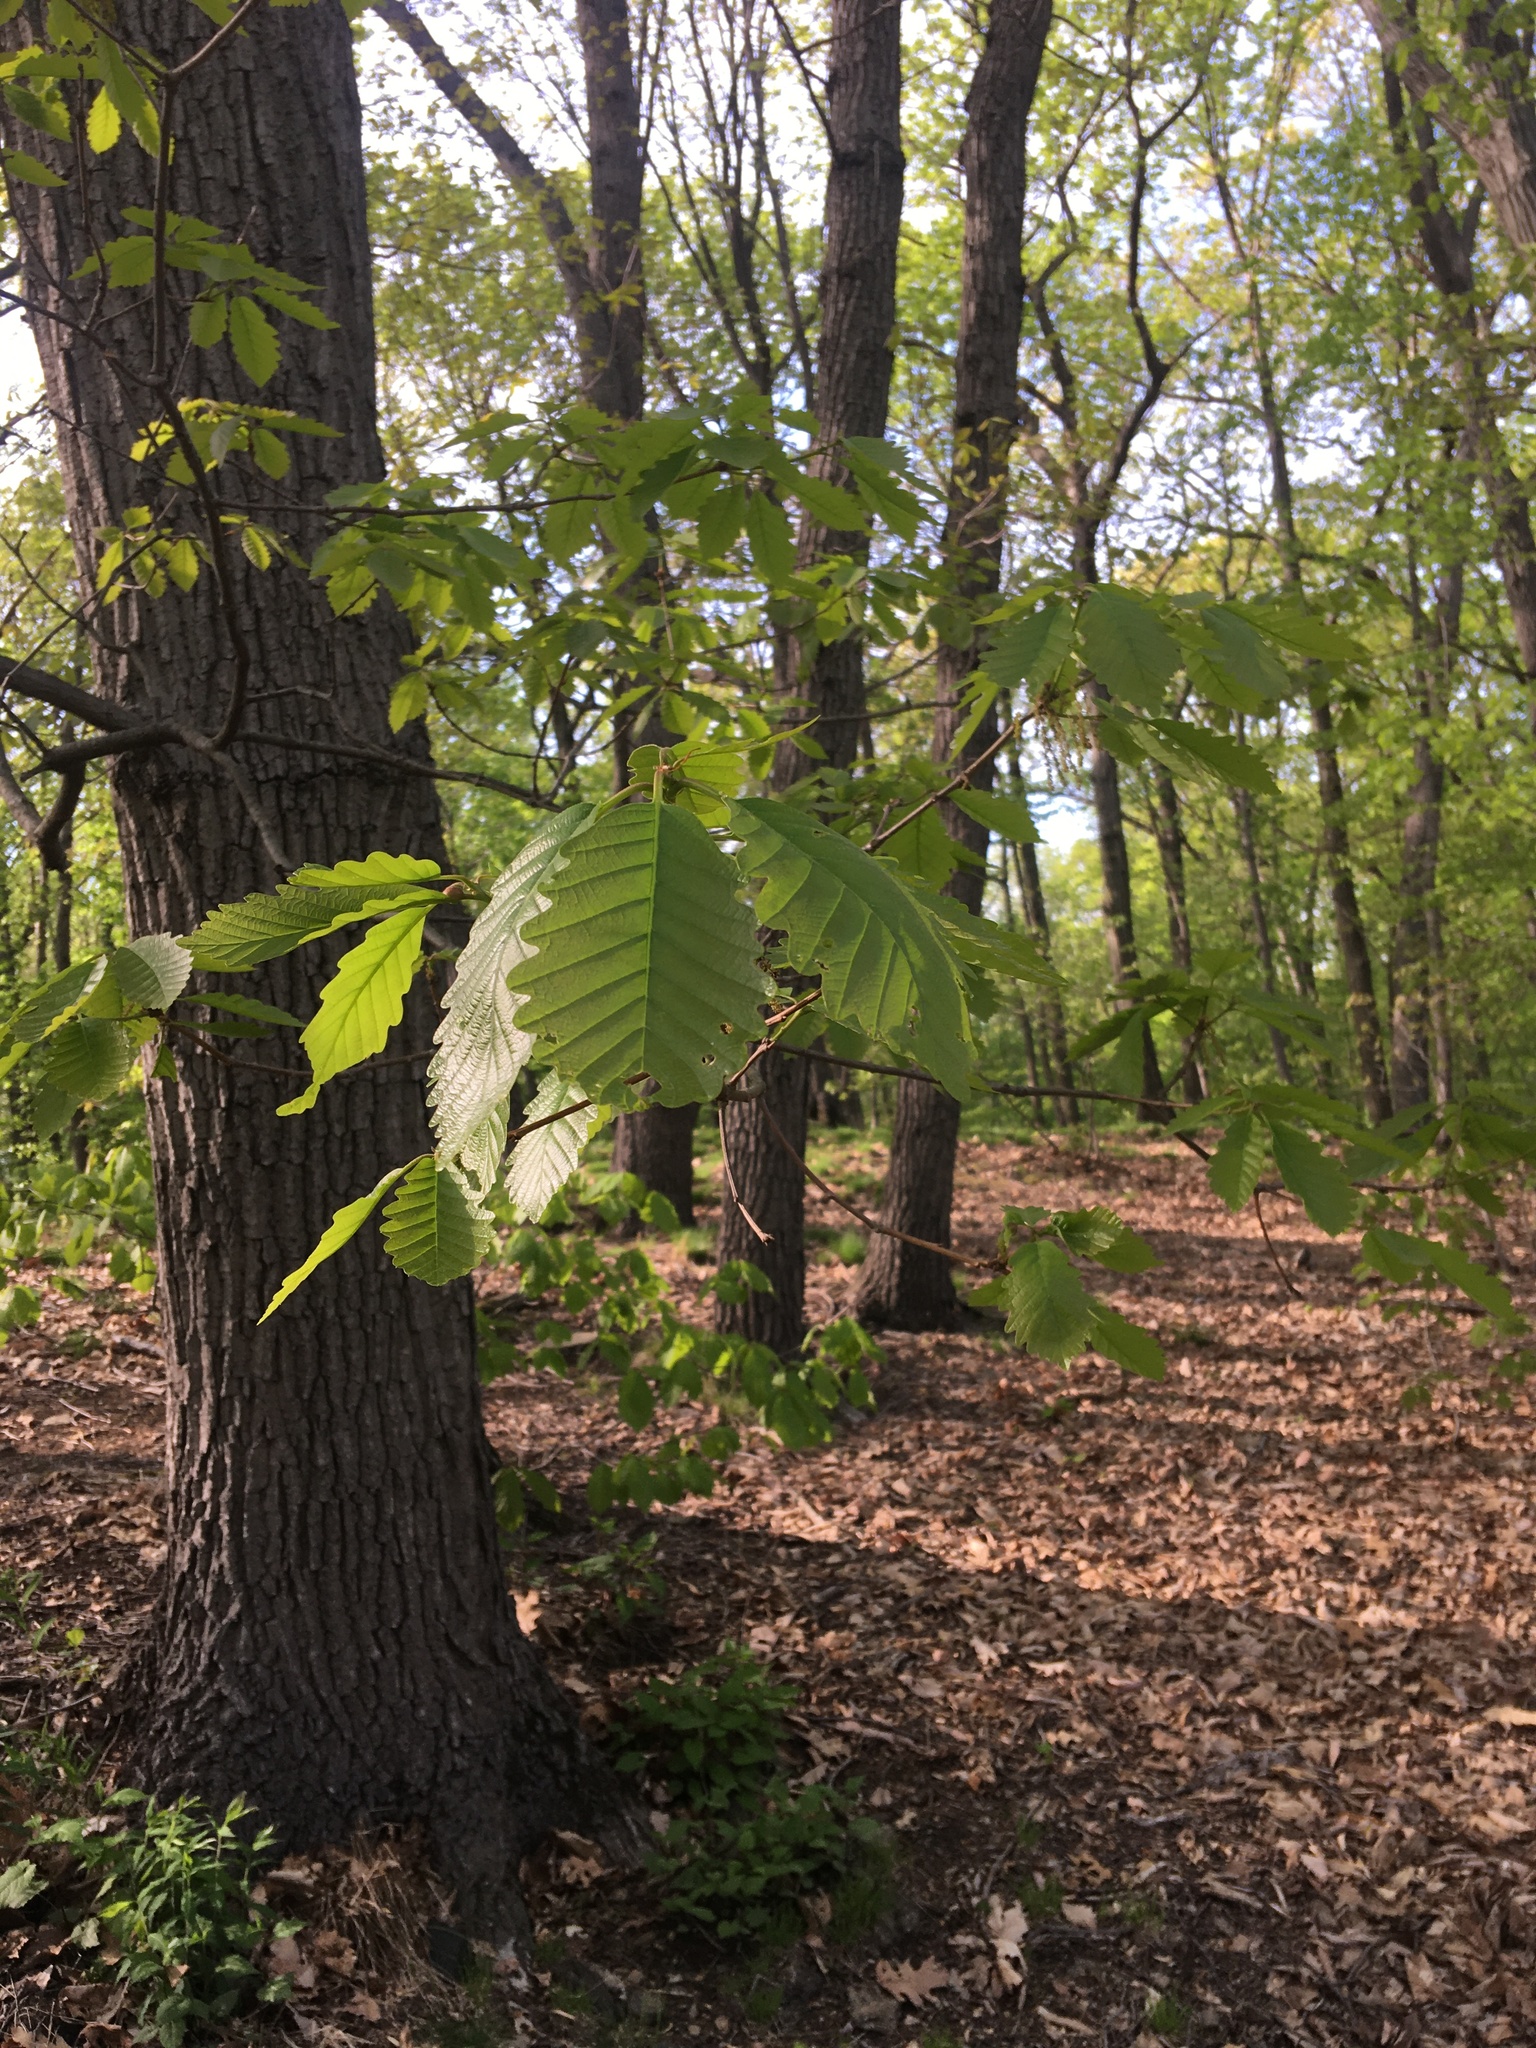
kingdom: Plantae
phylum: Tracheophyta
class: Magnoliopsida
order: Fagales
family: Fagaceae
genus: Quercus
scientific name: Quercus montana
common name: Chestnut oak
